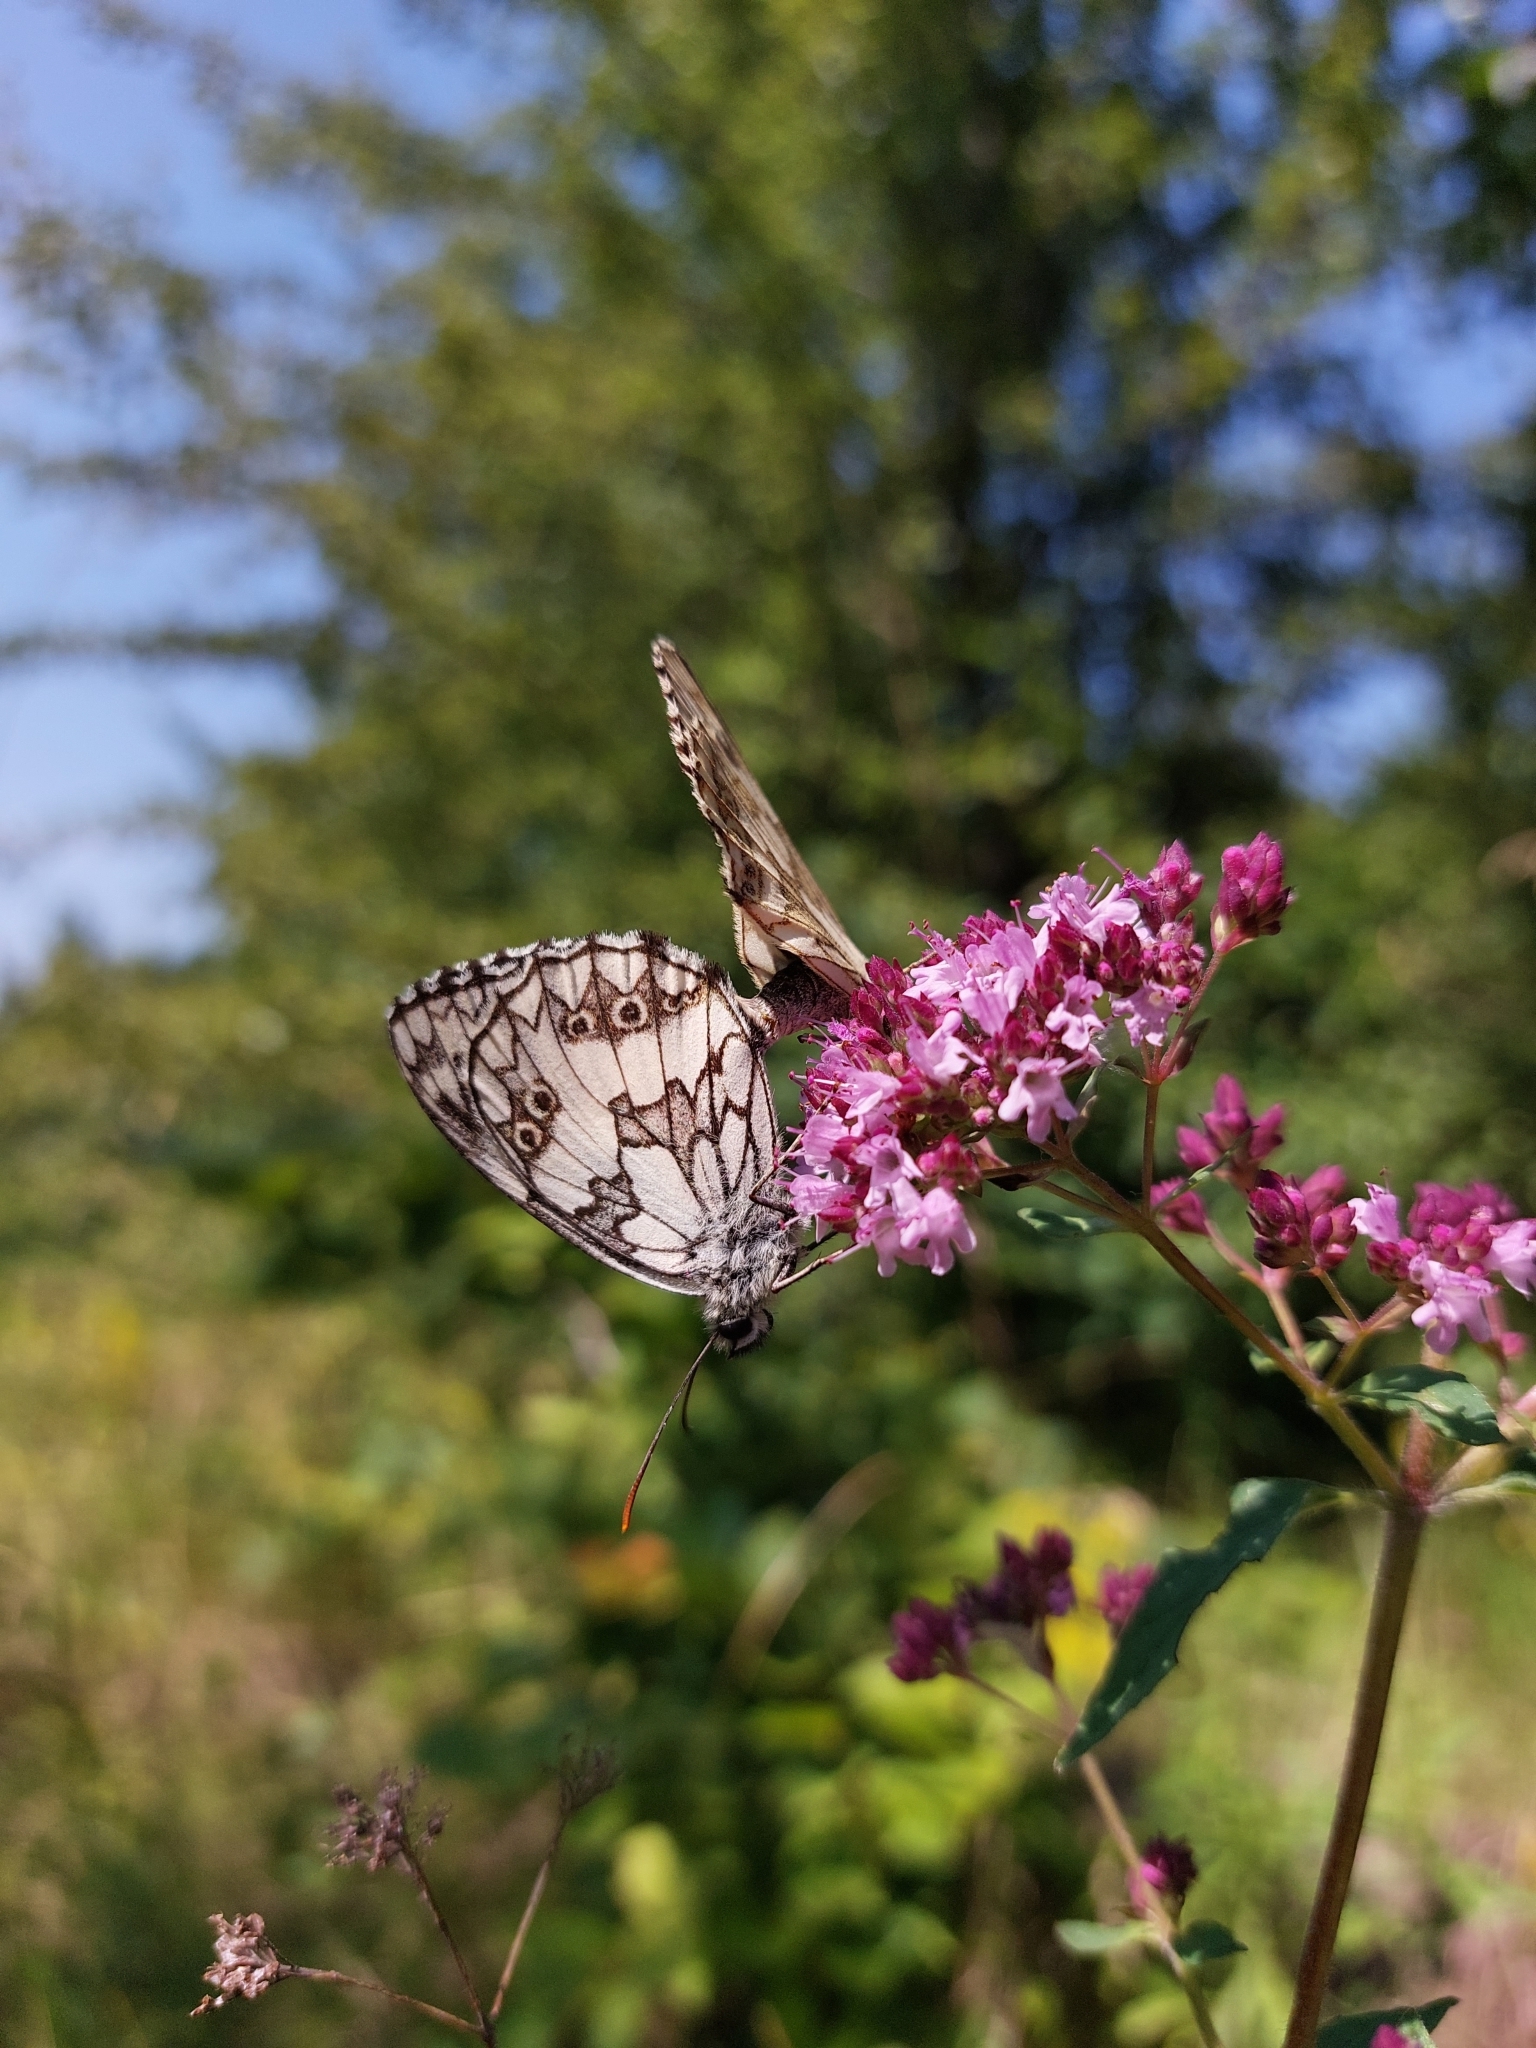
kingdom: Animalia
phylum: Arthropoda
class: Insecta
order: Lepidoptera
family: Nymphalidae
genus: Melanargia
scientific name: Melanargia galathea
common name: Marbled white
